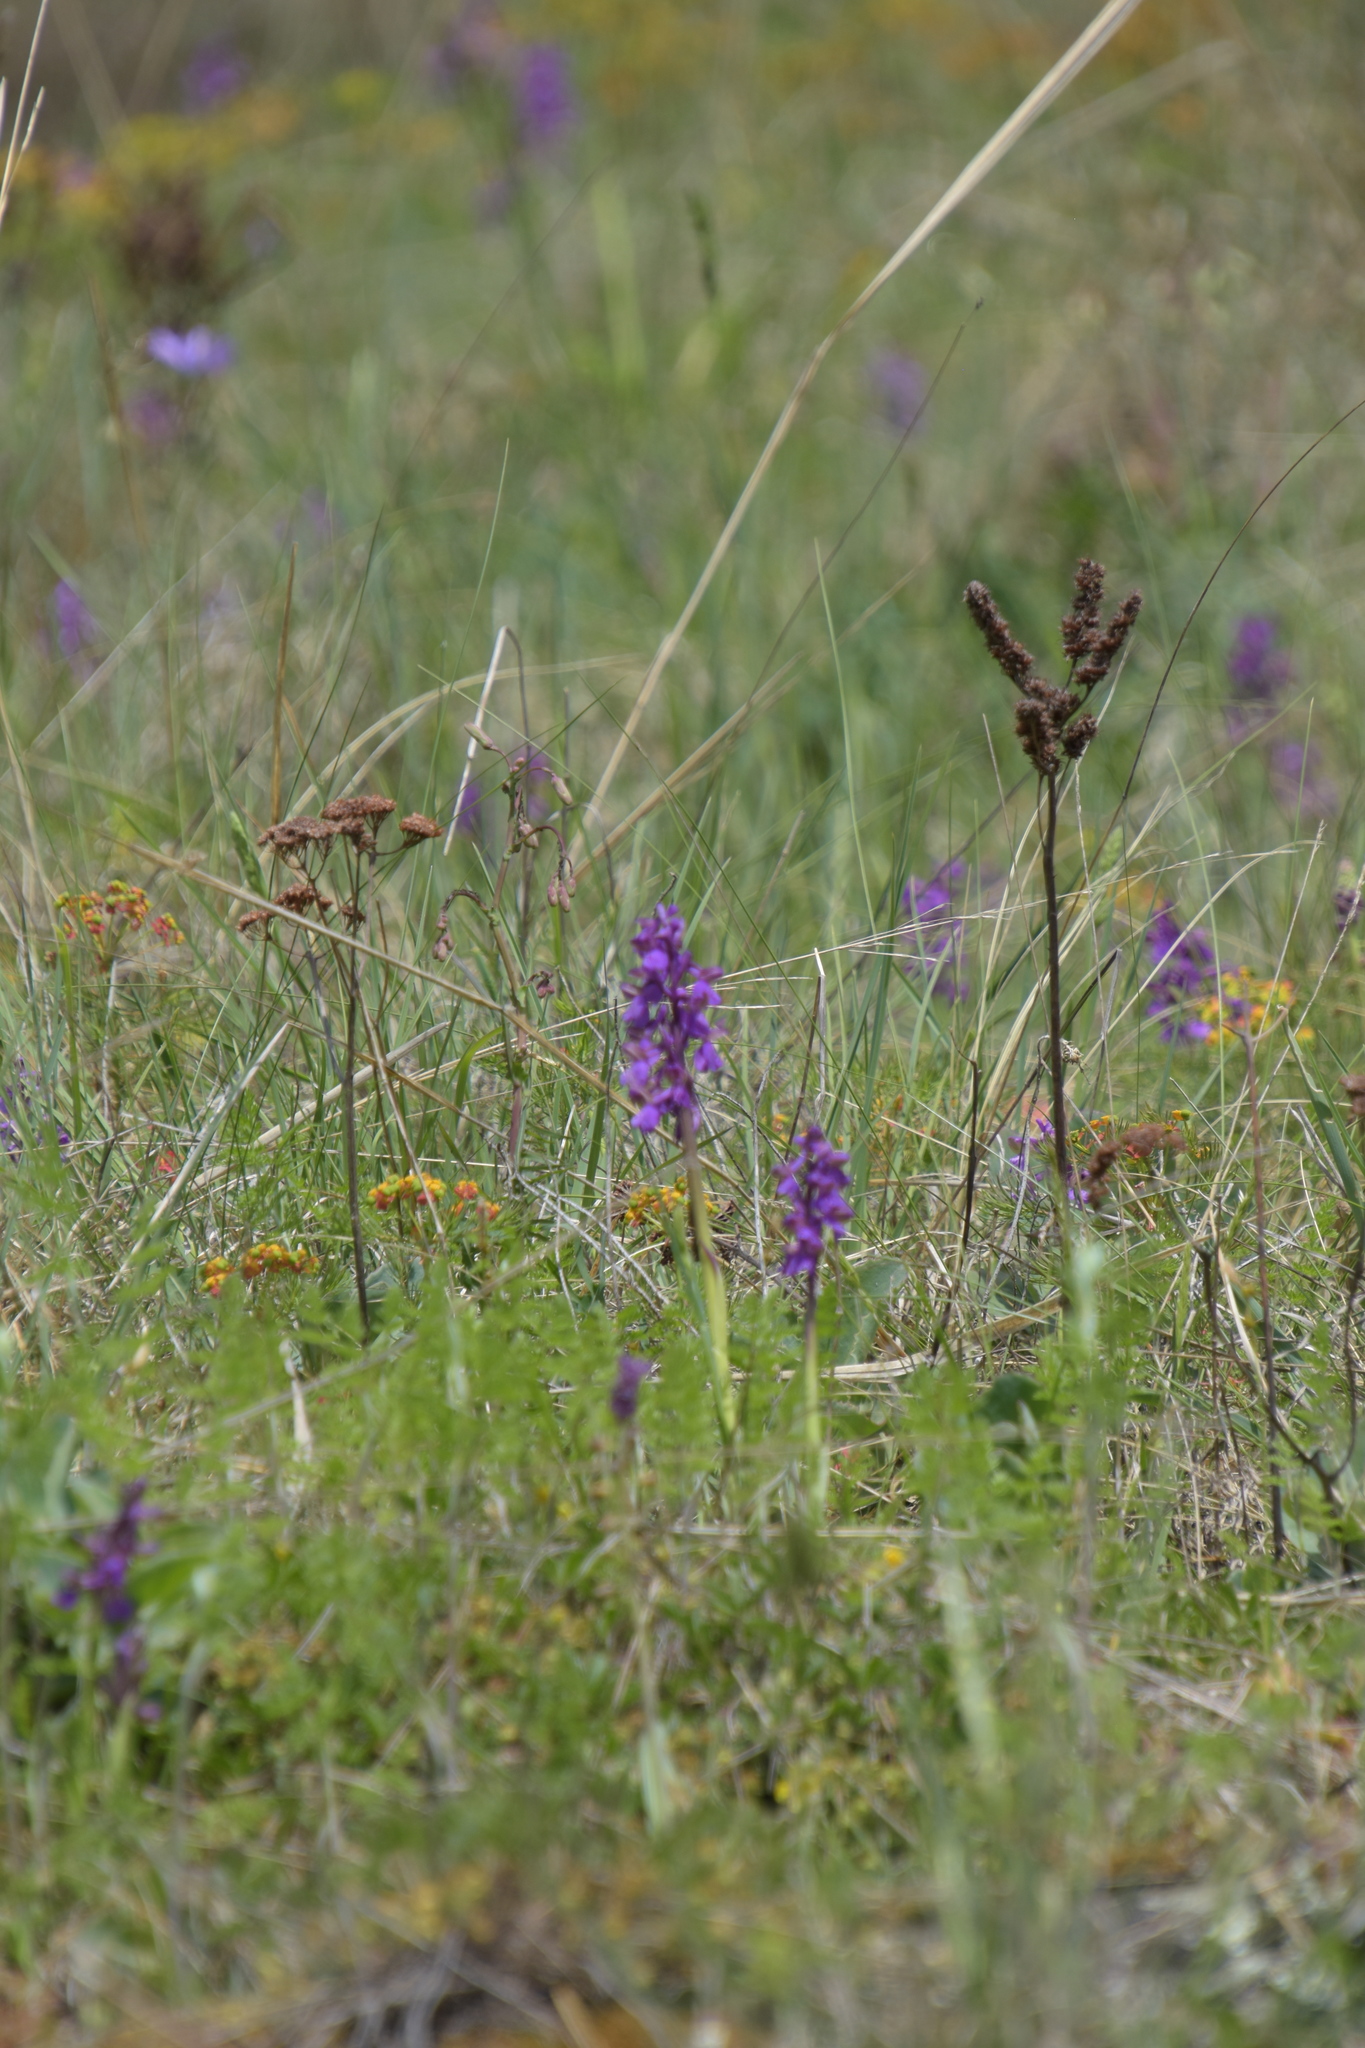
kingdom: Plantae
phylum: Tracheophyta
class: Liliopsida
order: Asparagales
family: Orchidaceae
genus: Anacamptis
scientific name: Anacamptis morio
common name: Green-winged orchid
